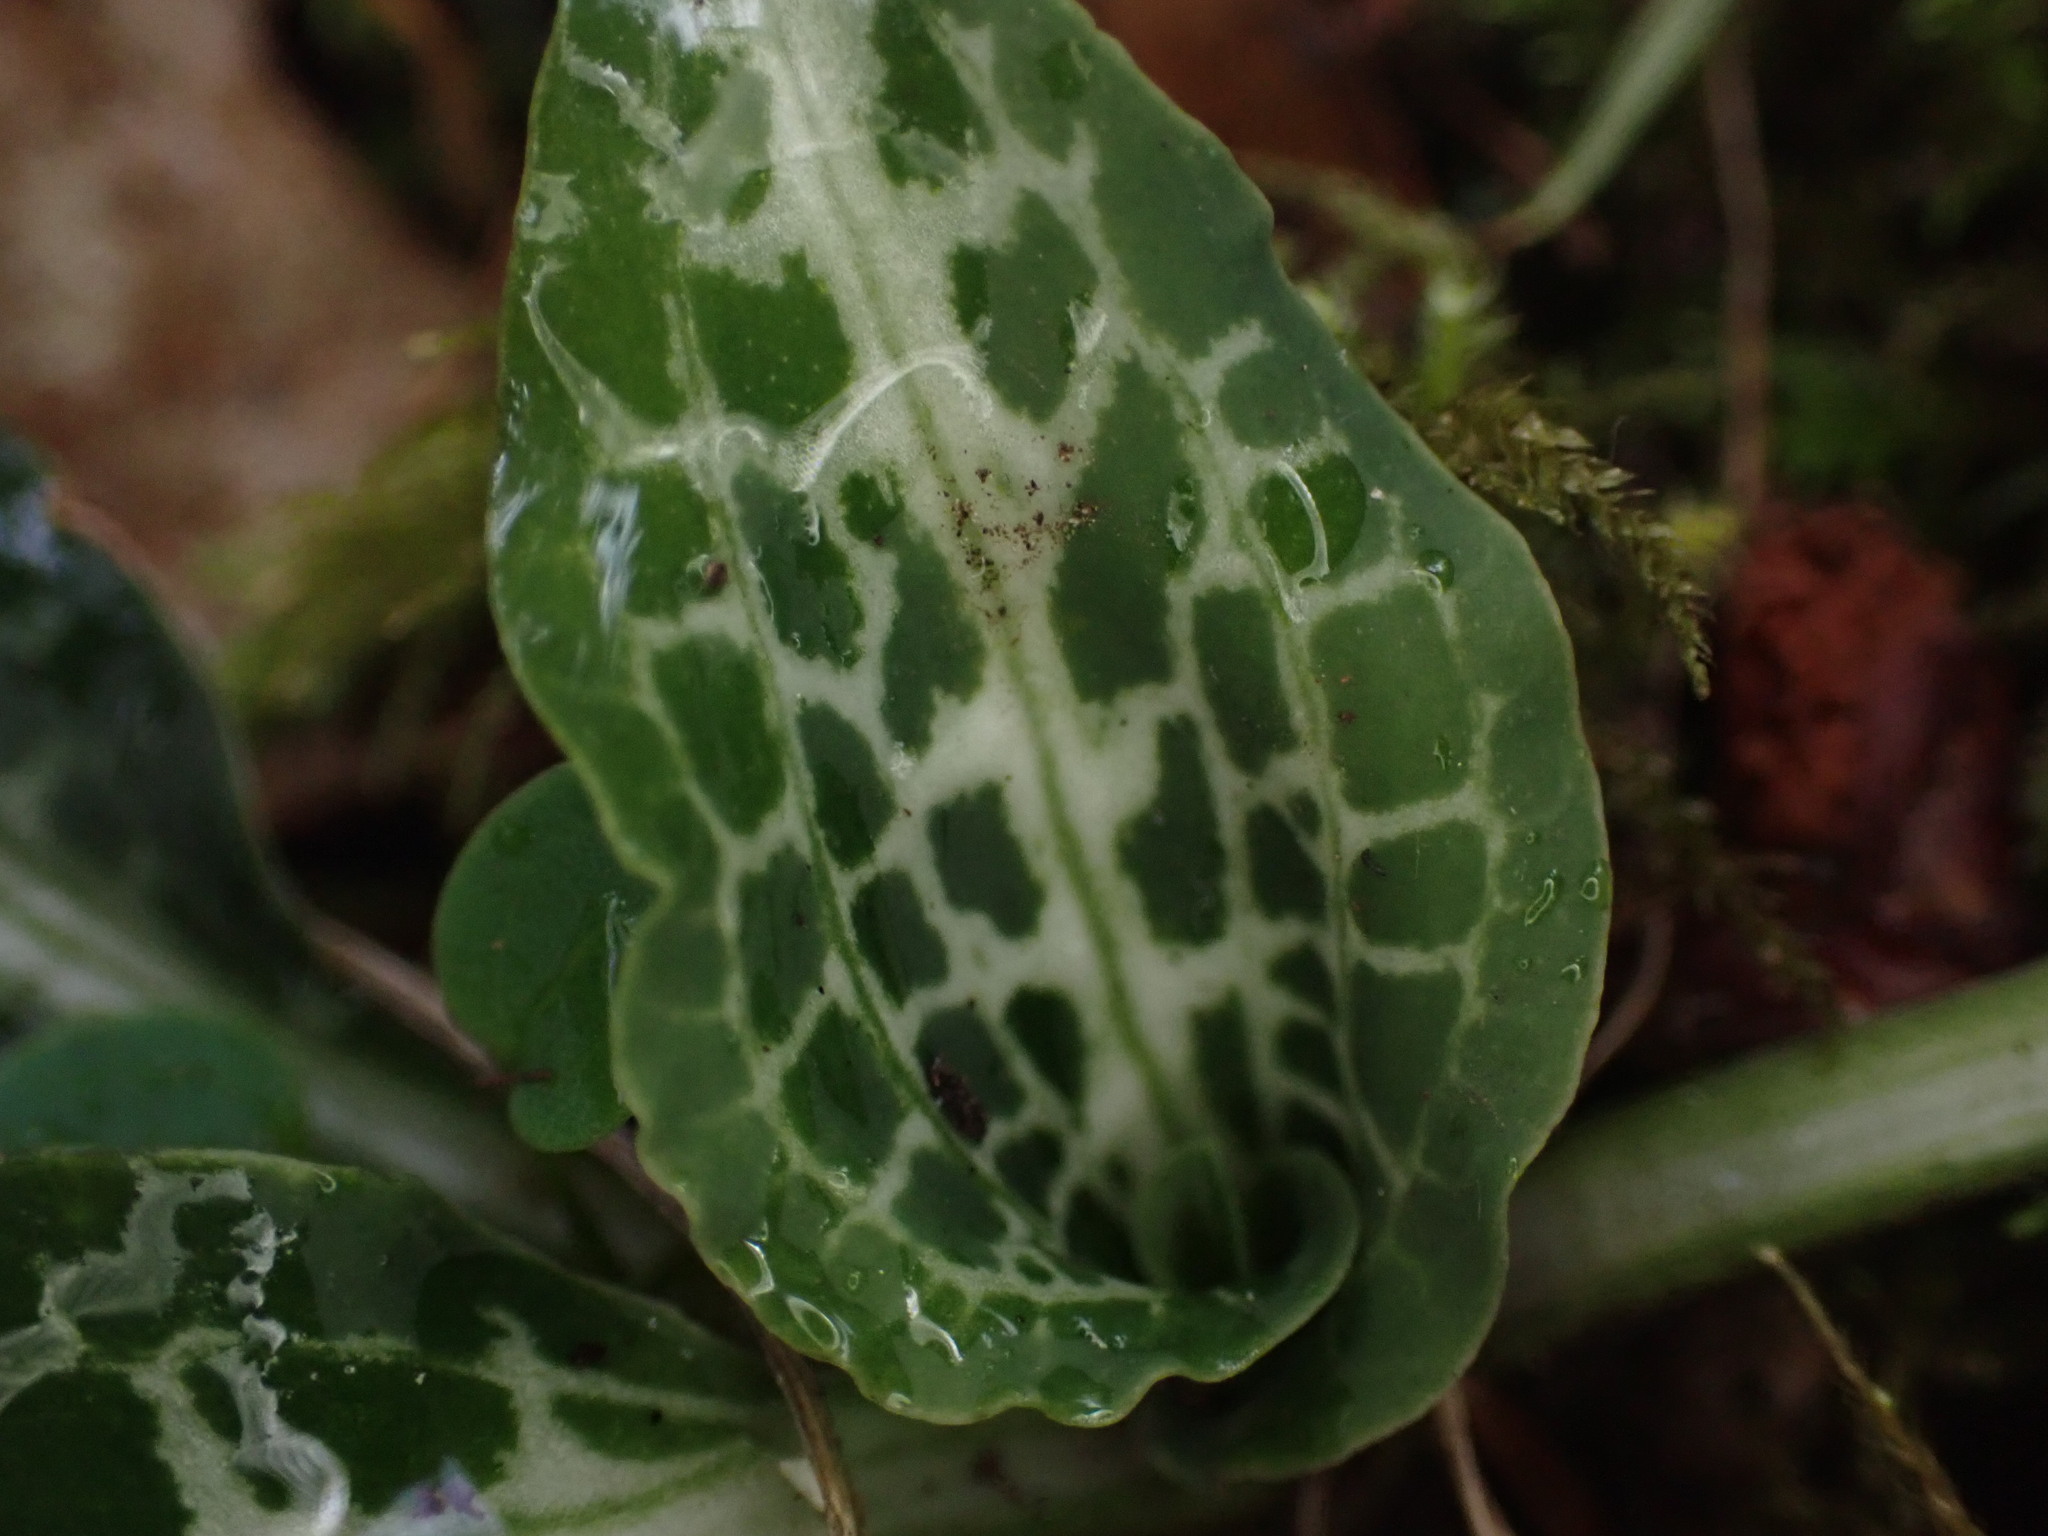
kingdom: Plantae
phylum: Tracheophyta
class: Liliopsida
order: Asparagales
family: Orchidaceae
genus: Goodyera
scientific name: Goodyera oblongifolia
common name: Giant rattlesnake-plantain
